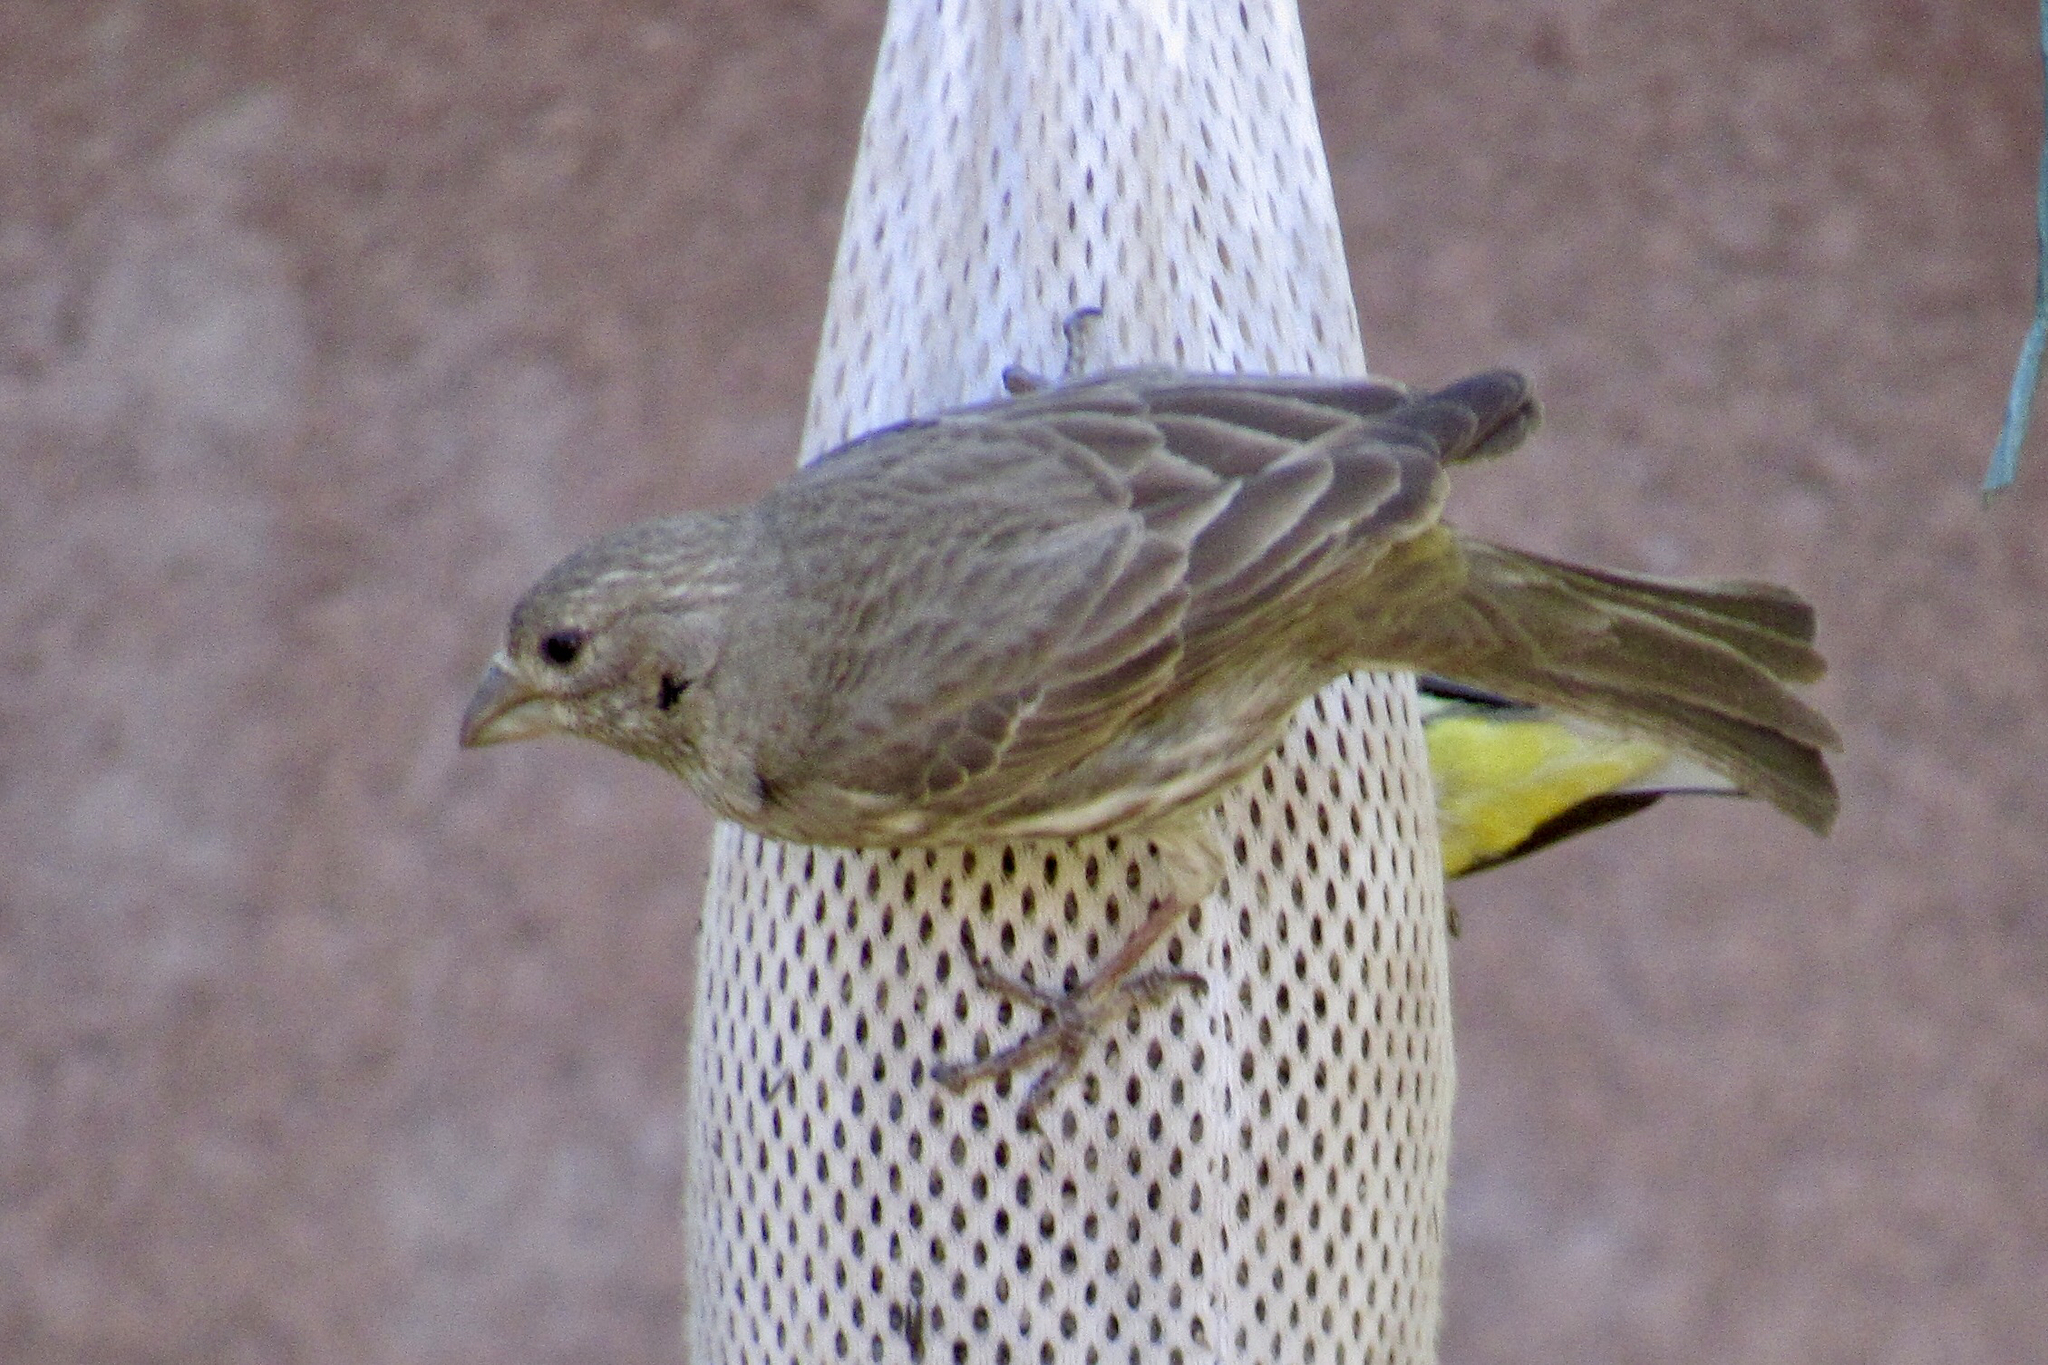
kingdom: Animalia
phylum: Chordata
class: Aves
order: Passeriformes
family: Fringillidae
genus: Haemorhous
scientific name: Haemorhous mexicanus
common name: House finch
